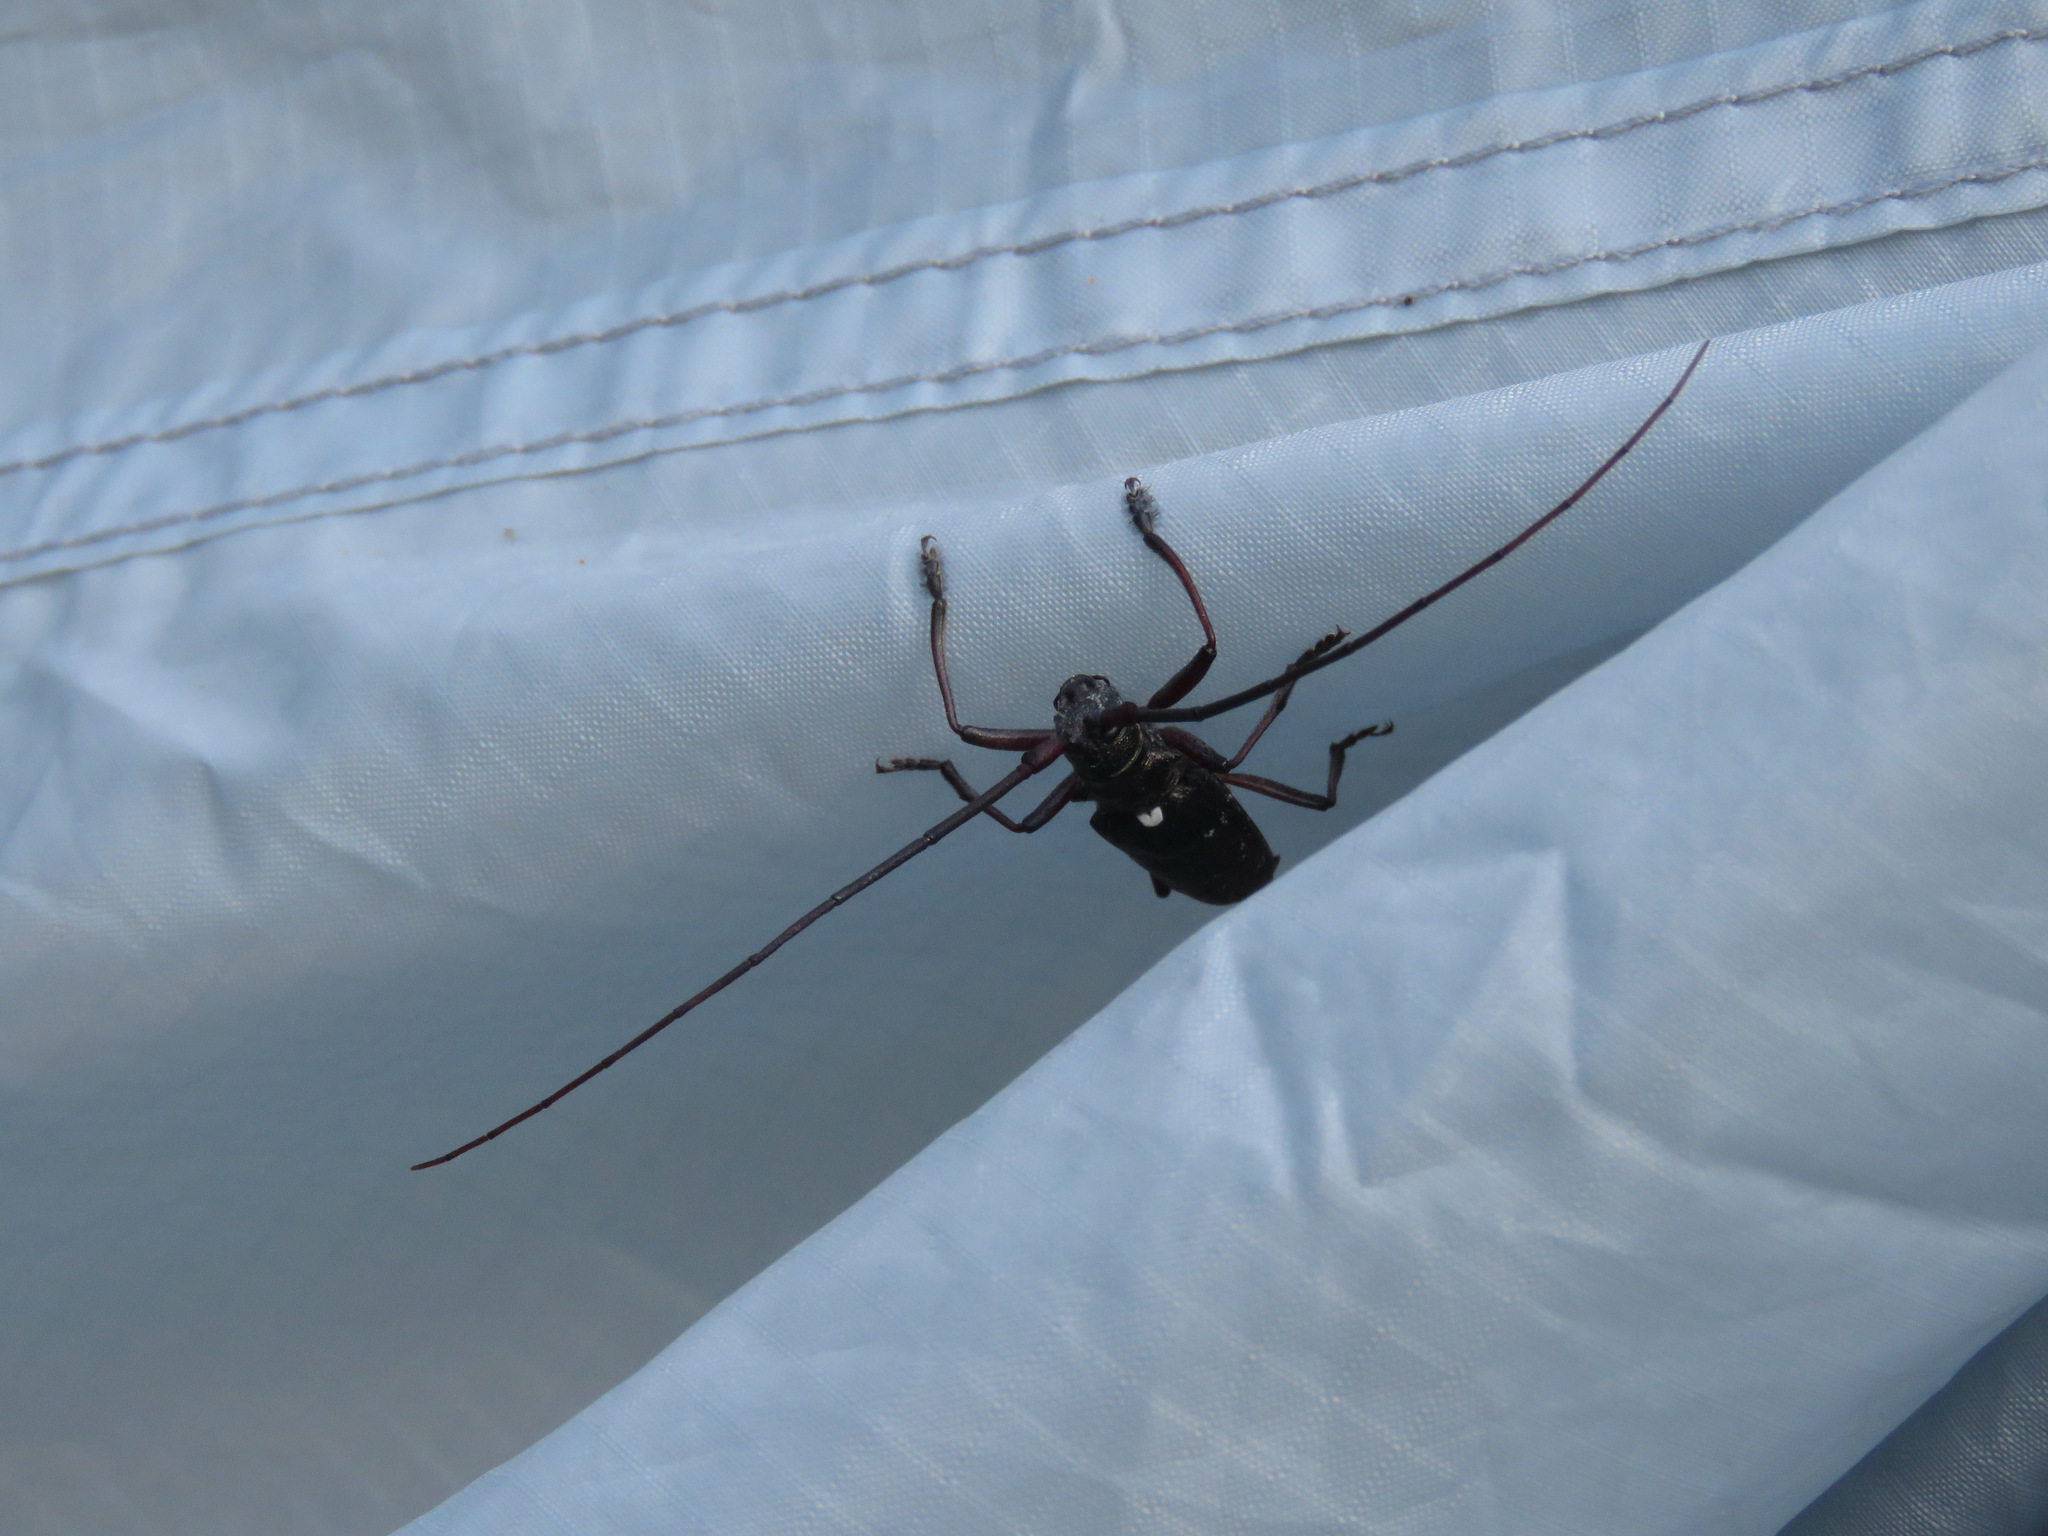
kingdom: Animalia
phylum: Arthropoda
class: Insecta
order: Coleoptera
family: Cerambycidae
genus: Monochamus
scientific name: Monochamus scutellatus
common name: White-spotted sawyer beetle
